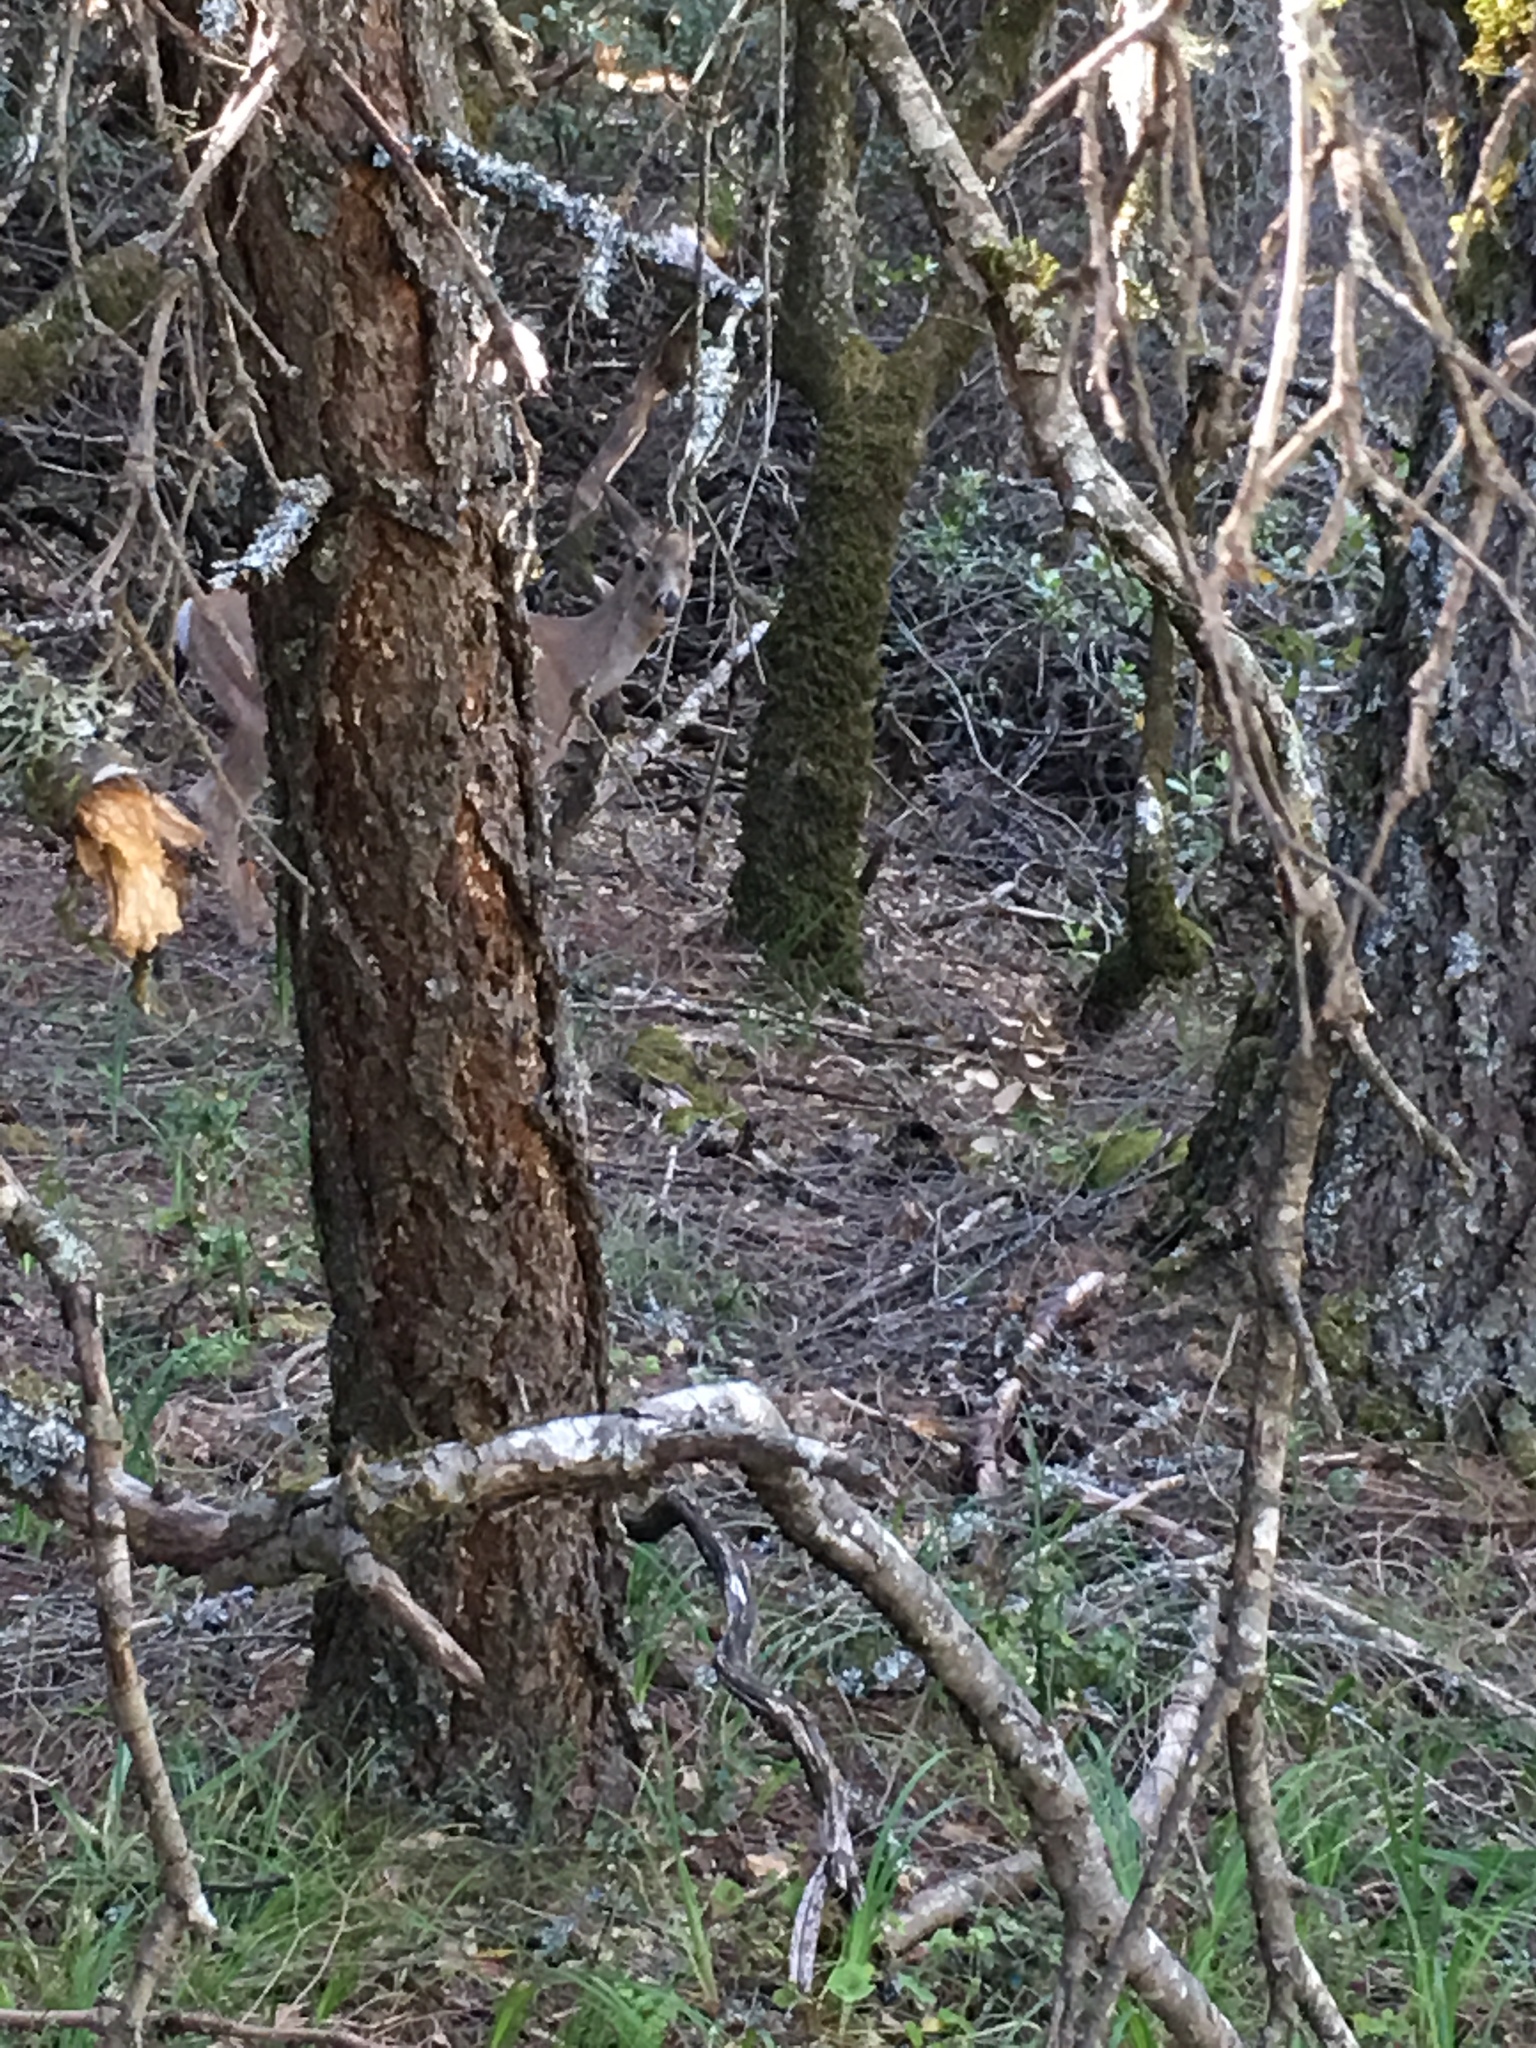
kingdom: Animalia
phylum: Chordata
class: Mammalia
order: Artiodactyla
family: Cervidae
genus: Odocoileus
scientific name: Odocoileus hemionus
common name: Mule deer
